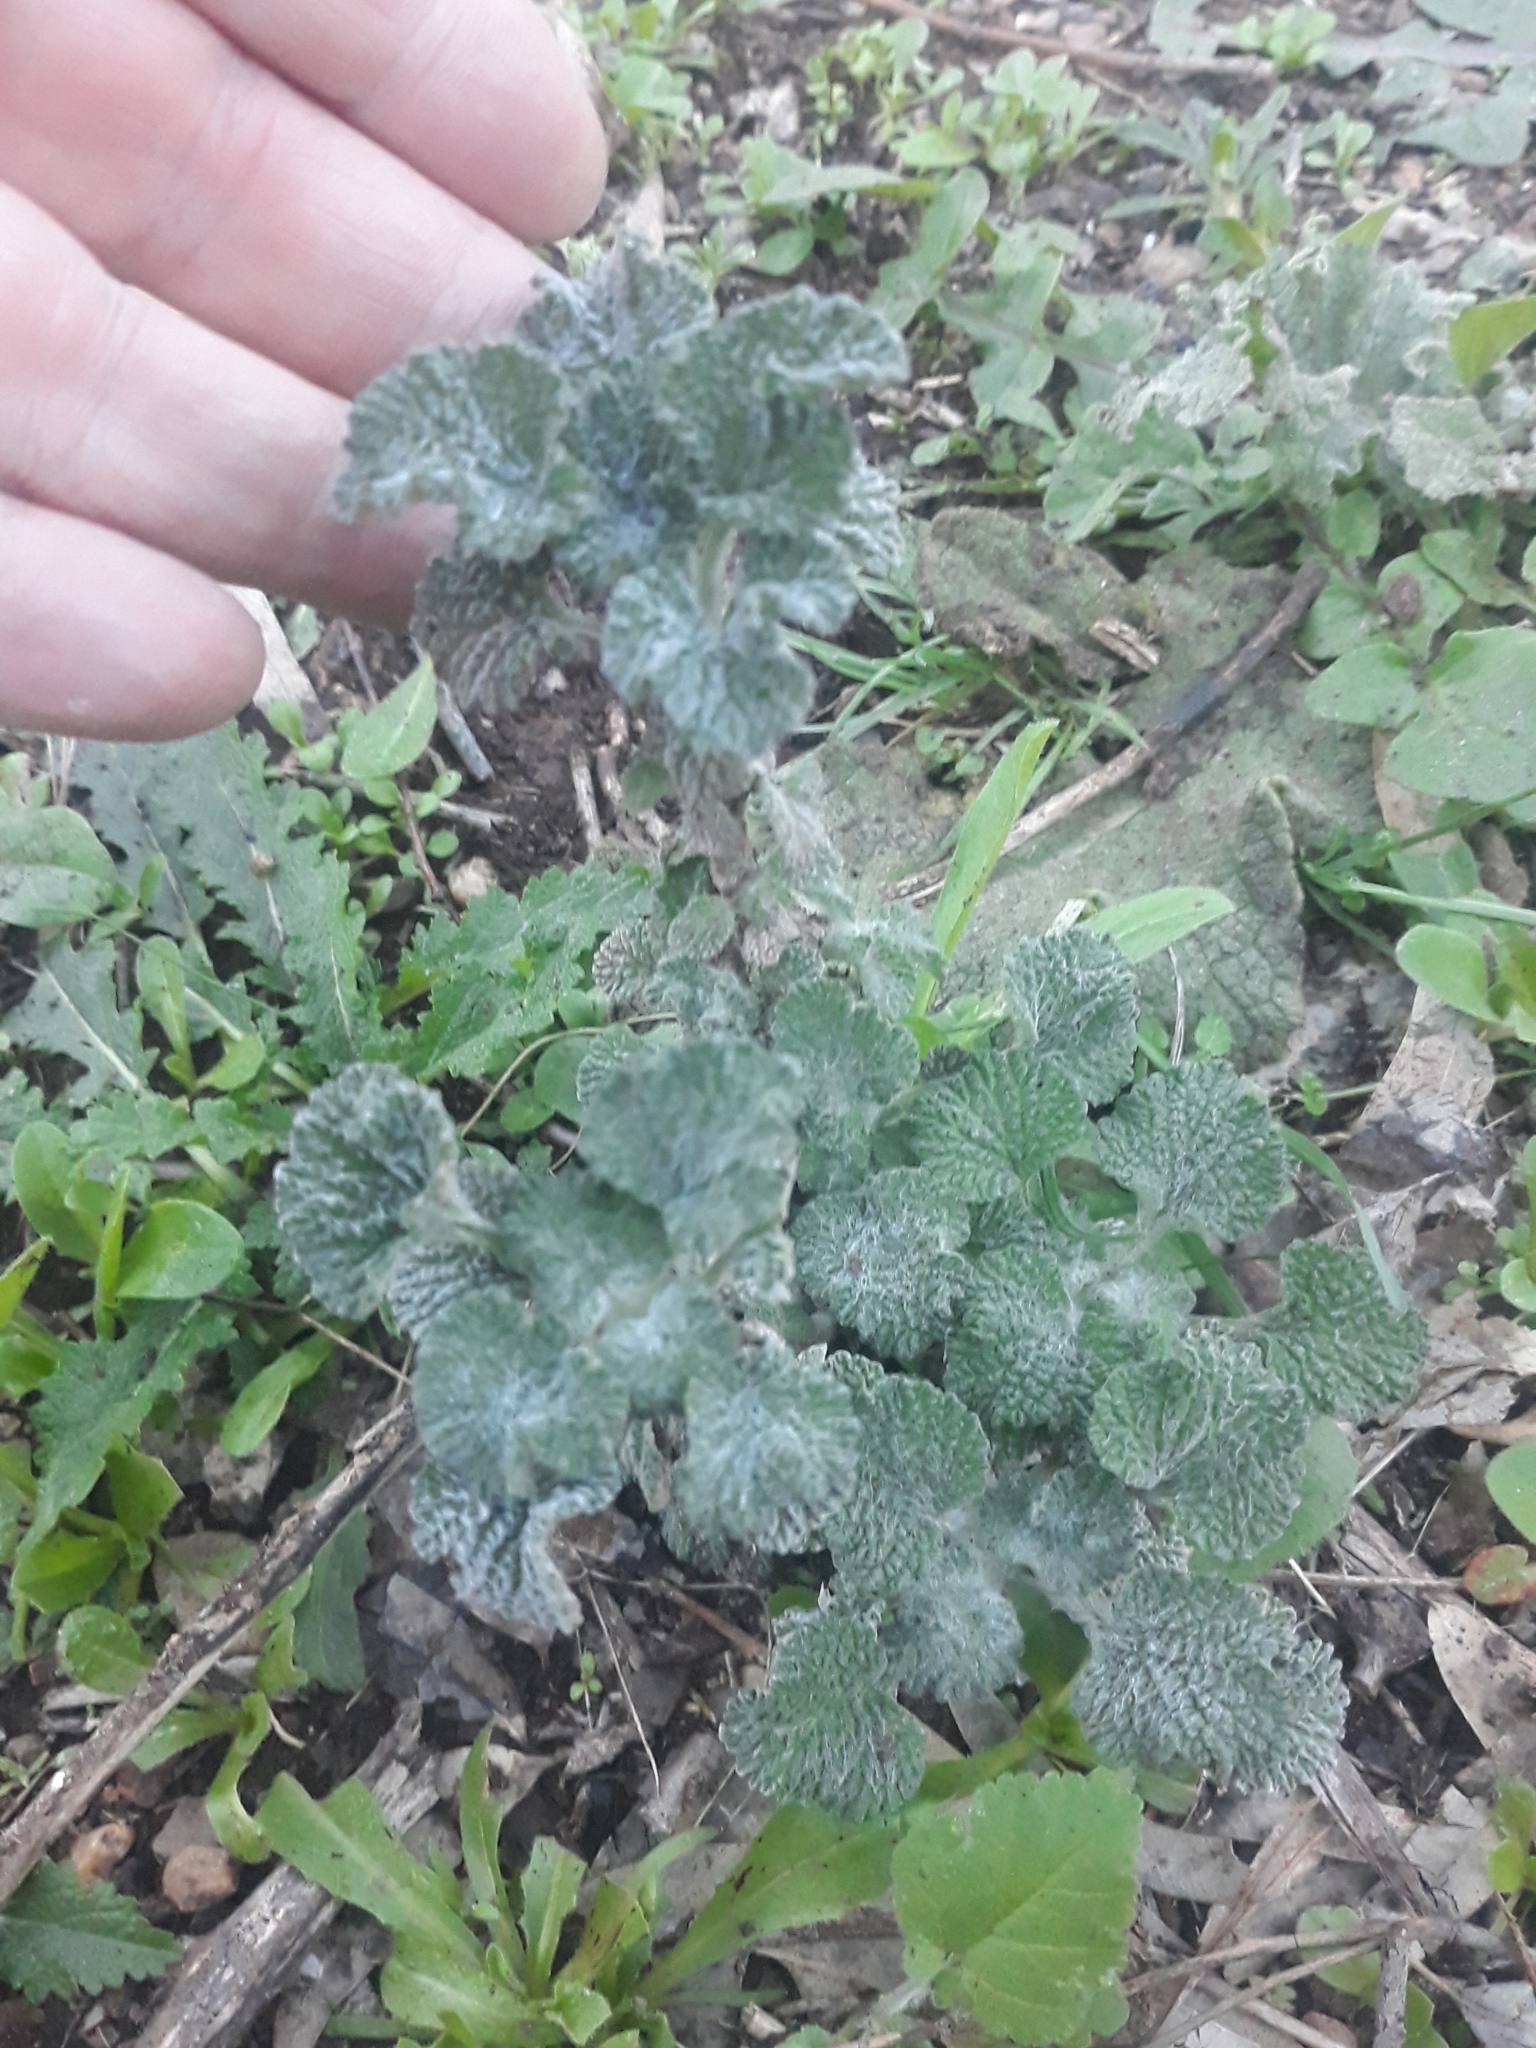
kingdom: Plantae
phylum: Tracheophyta
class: Magnoliopsida
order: Lamiales
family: Lamiaceae
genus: Marrubium
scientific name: Marrubium vulgare
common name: Horehound
